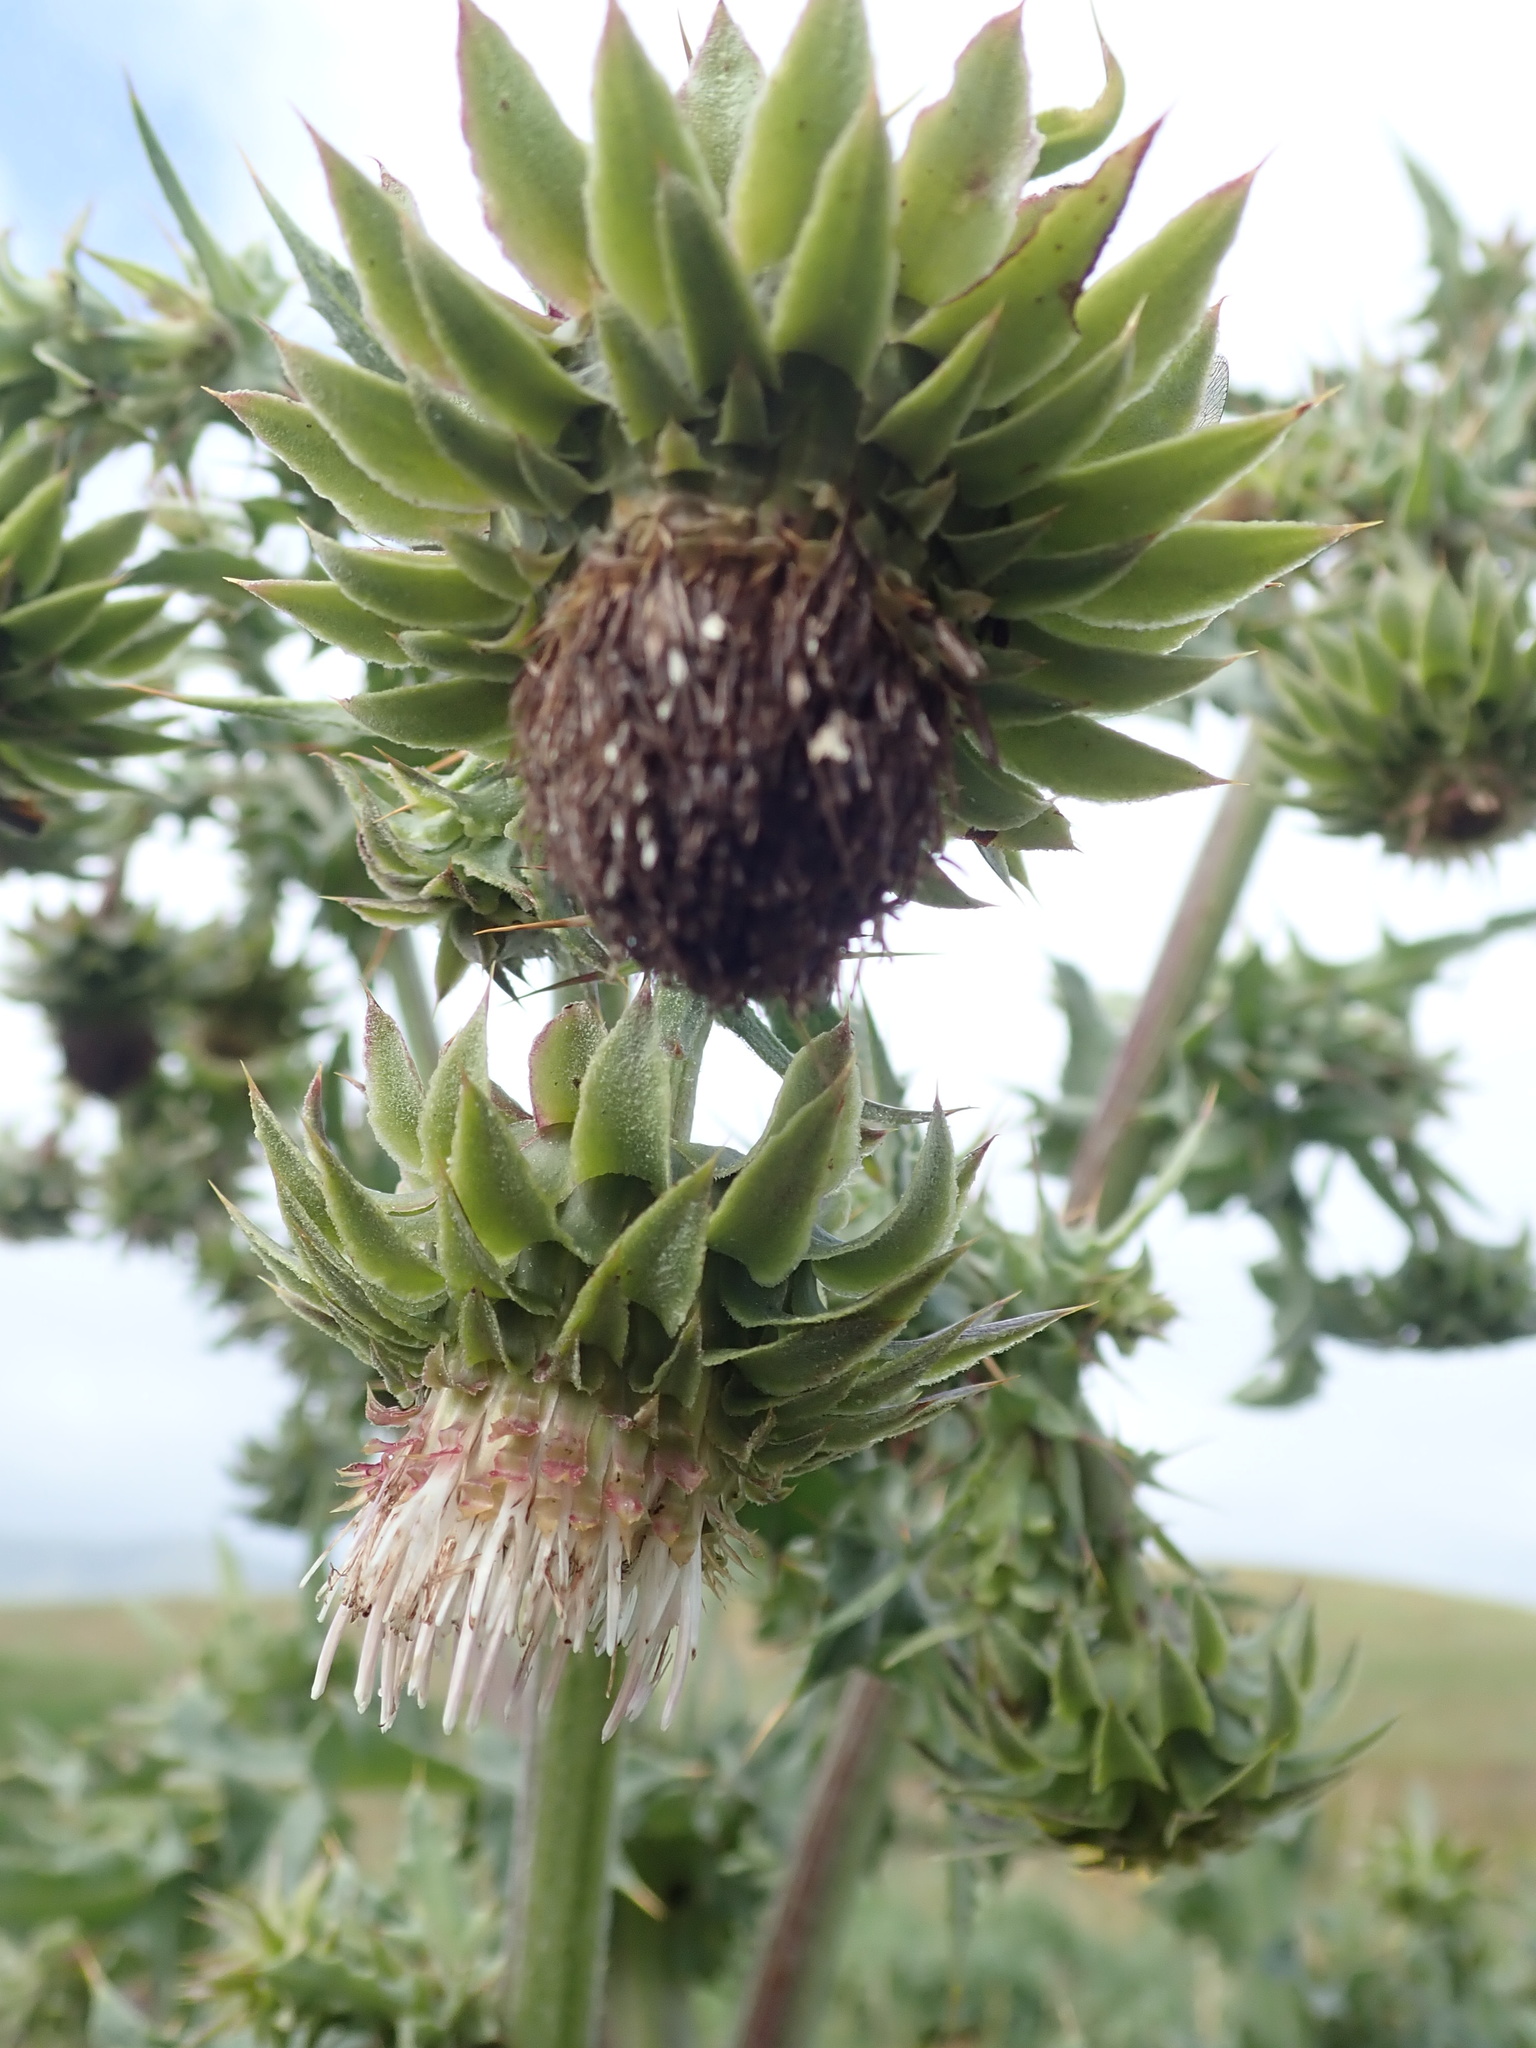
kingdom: Plantae
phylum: Tracheophyta
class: Magnoliopsida
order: Asterales
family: Asteraceae
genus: Cirsium
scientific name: Cirsium fontinale
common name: Fountain thistle
